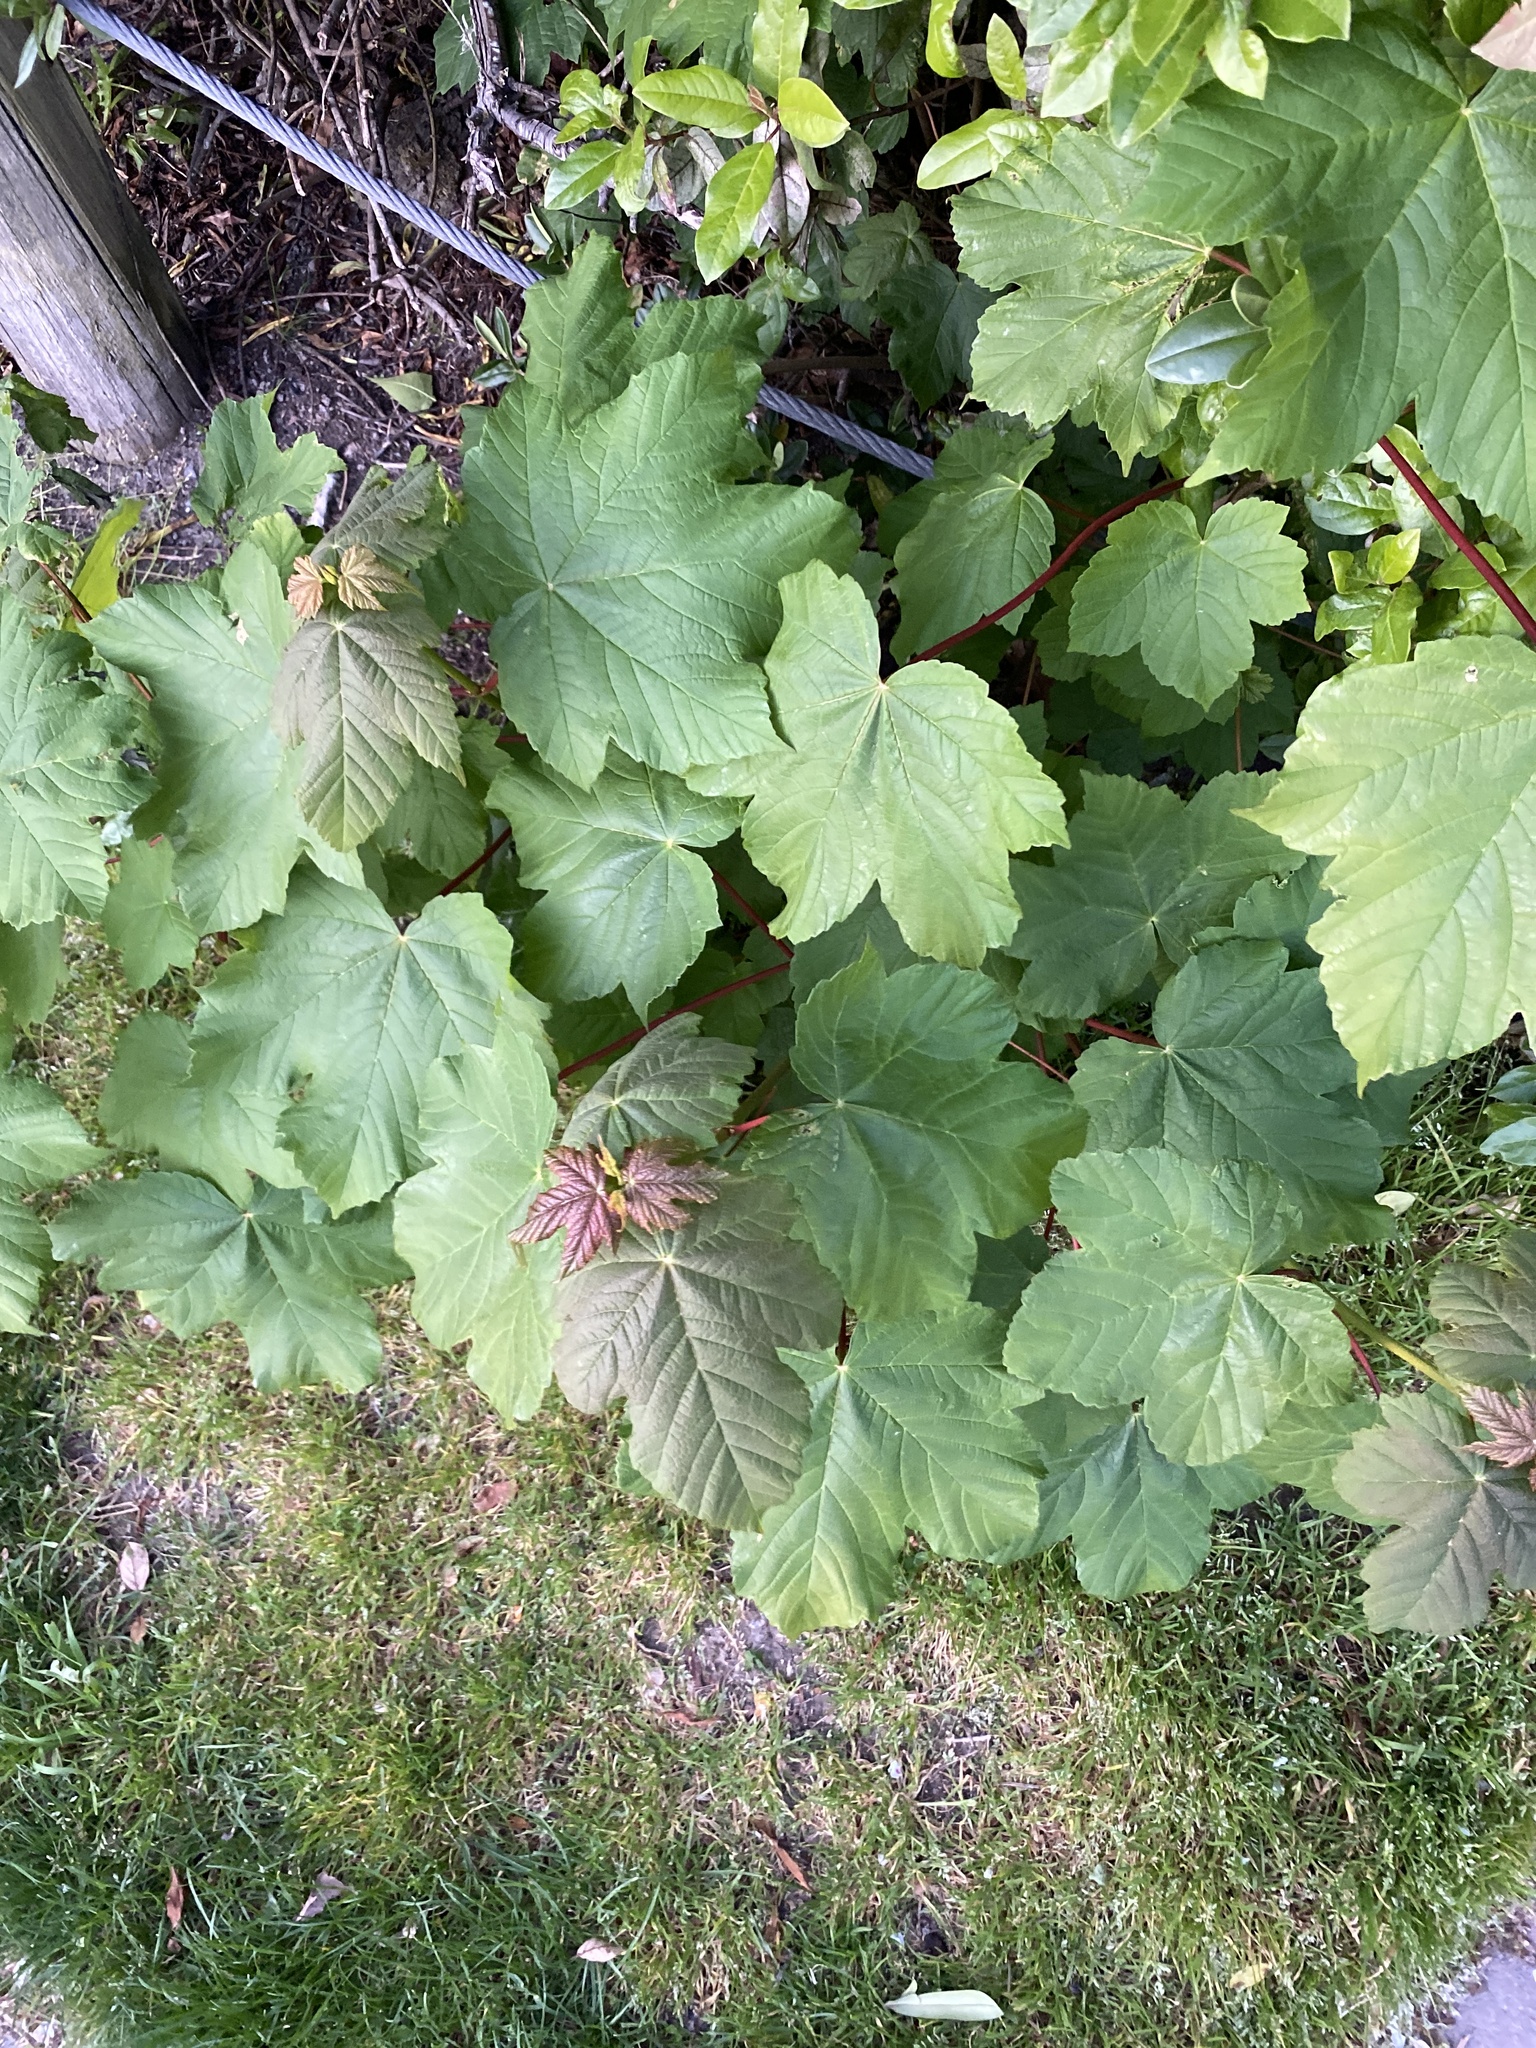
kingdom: Plantae
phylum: Tracheophyta
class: Magnoliopsida
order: Sapindales
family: Sapindaceae
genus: Acer
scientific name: Acer pseudoplatanus
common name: Sycamore
